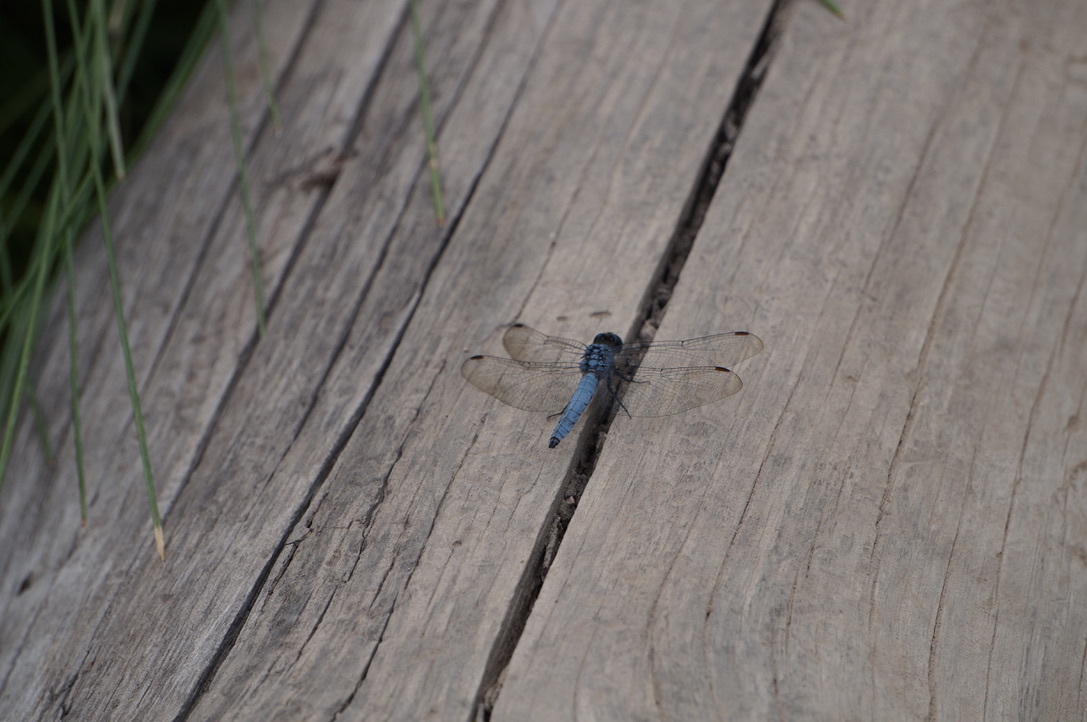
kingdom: Animalia
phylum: Arthropoda
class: Insecta
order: Odonata
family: Libellulidae
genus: Erythemis
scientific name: Erythemis collocata
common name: Western pondhawk
